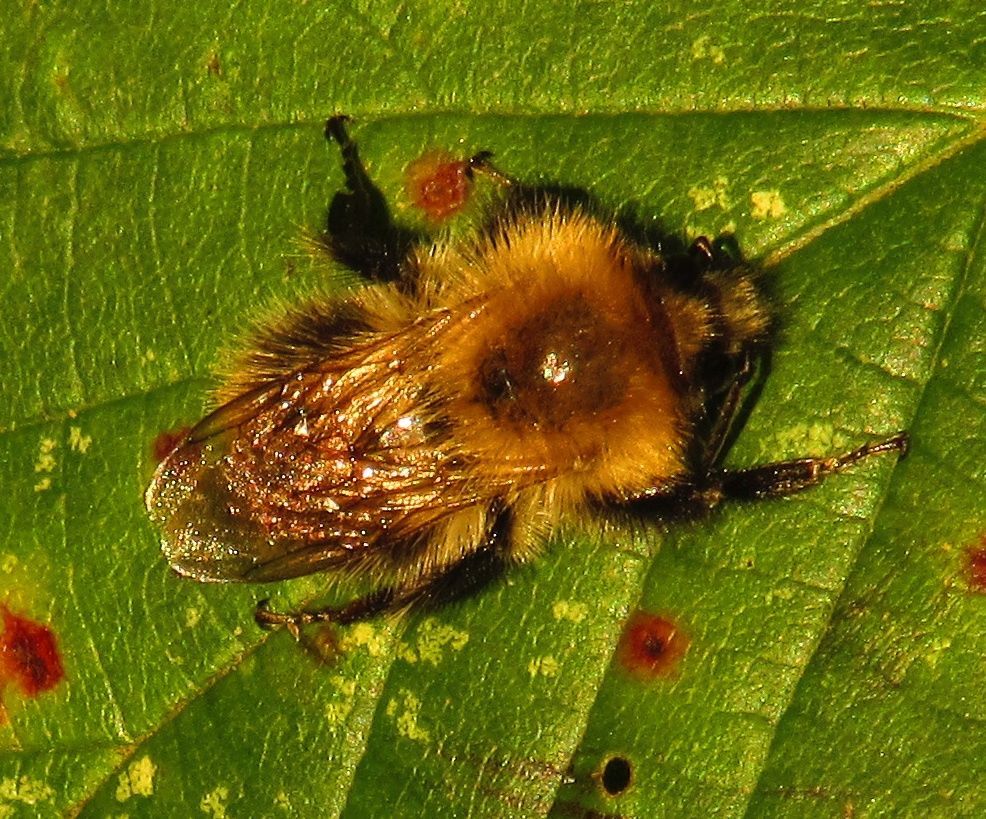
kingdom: Animalia
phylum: Arthropoda
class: Insecta
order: Hymenoptera
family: Apidae
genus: Bombus
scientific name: Bombus pascuorum
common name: Common carder bee
